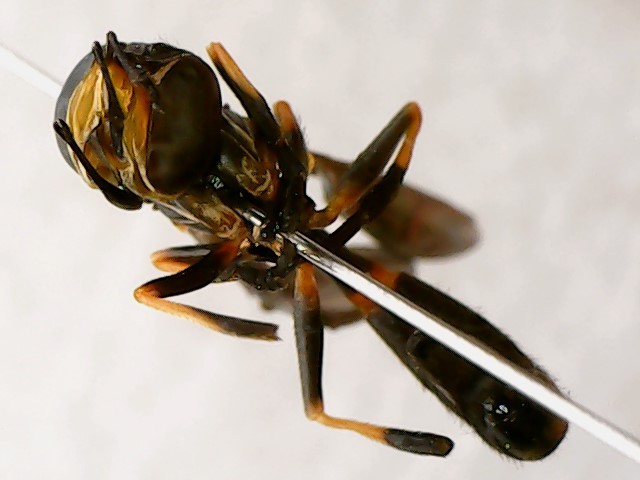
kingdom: Animalia
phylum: Arthropoda
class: Insecta
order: Diptera
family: Conopidae
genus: Physoconops
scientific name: Physoconops obscuripennis
